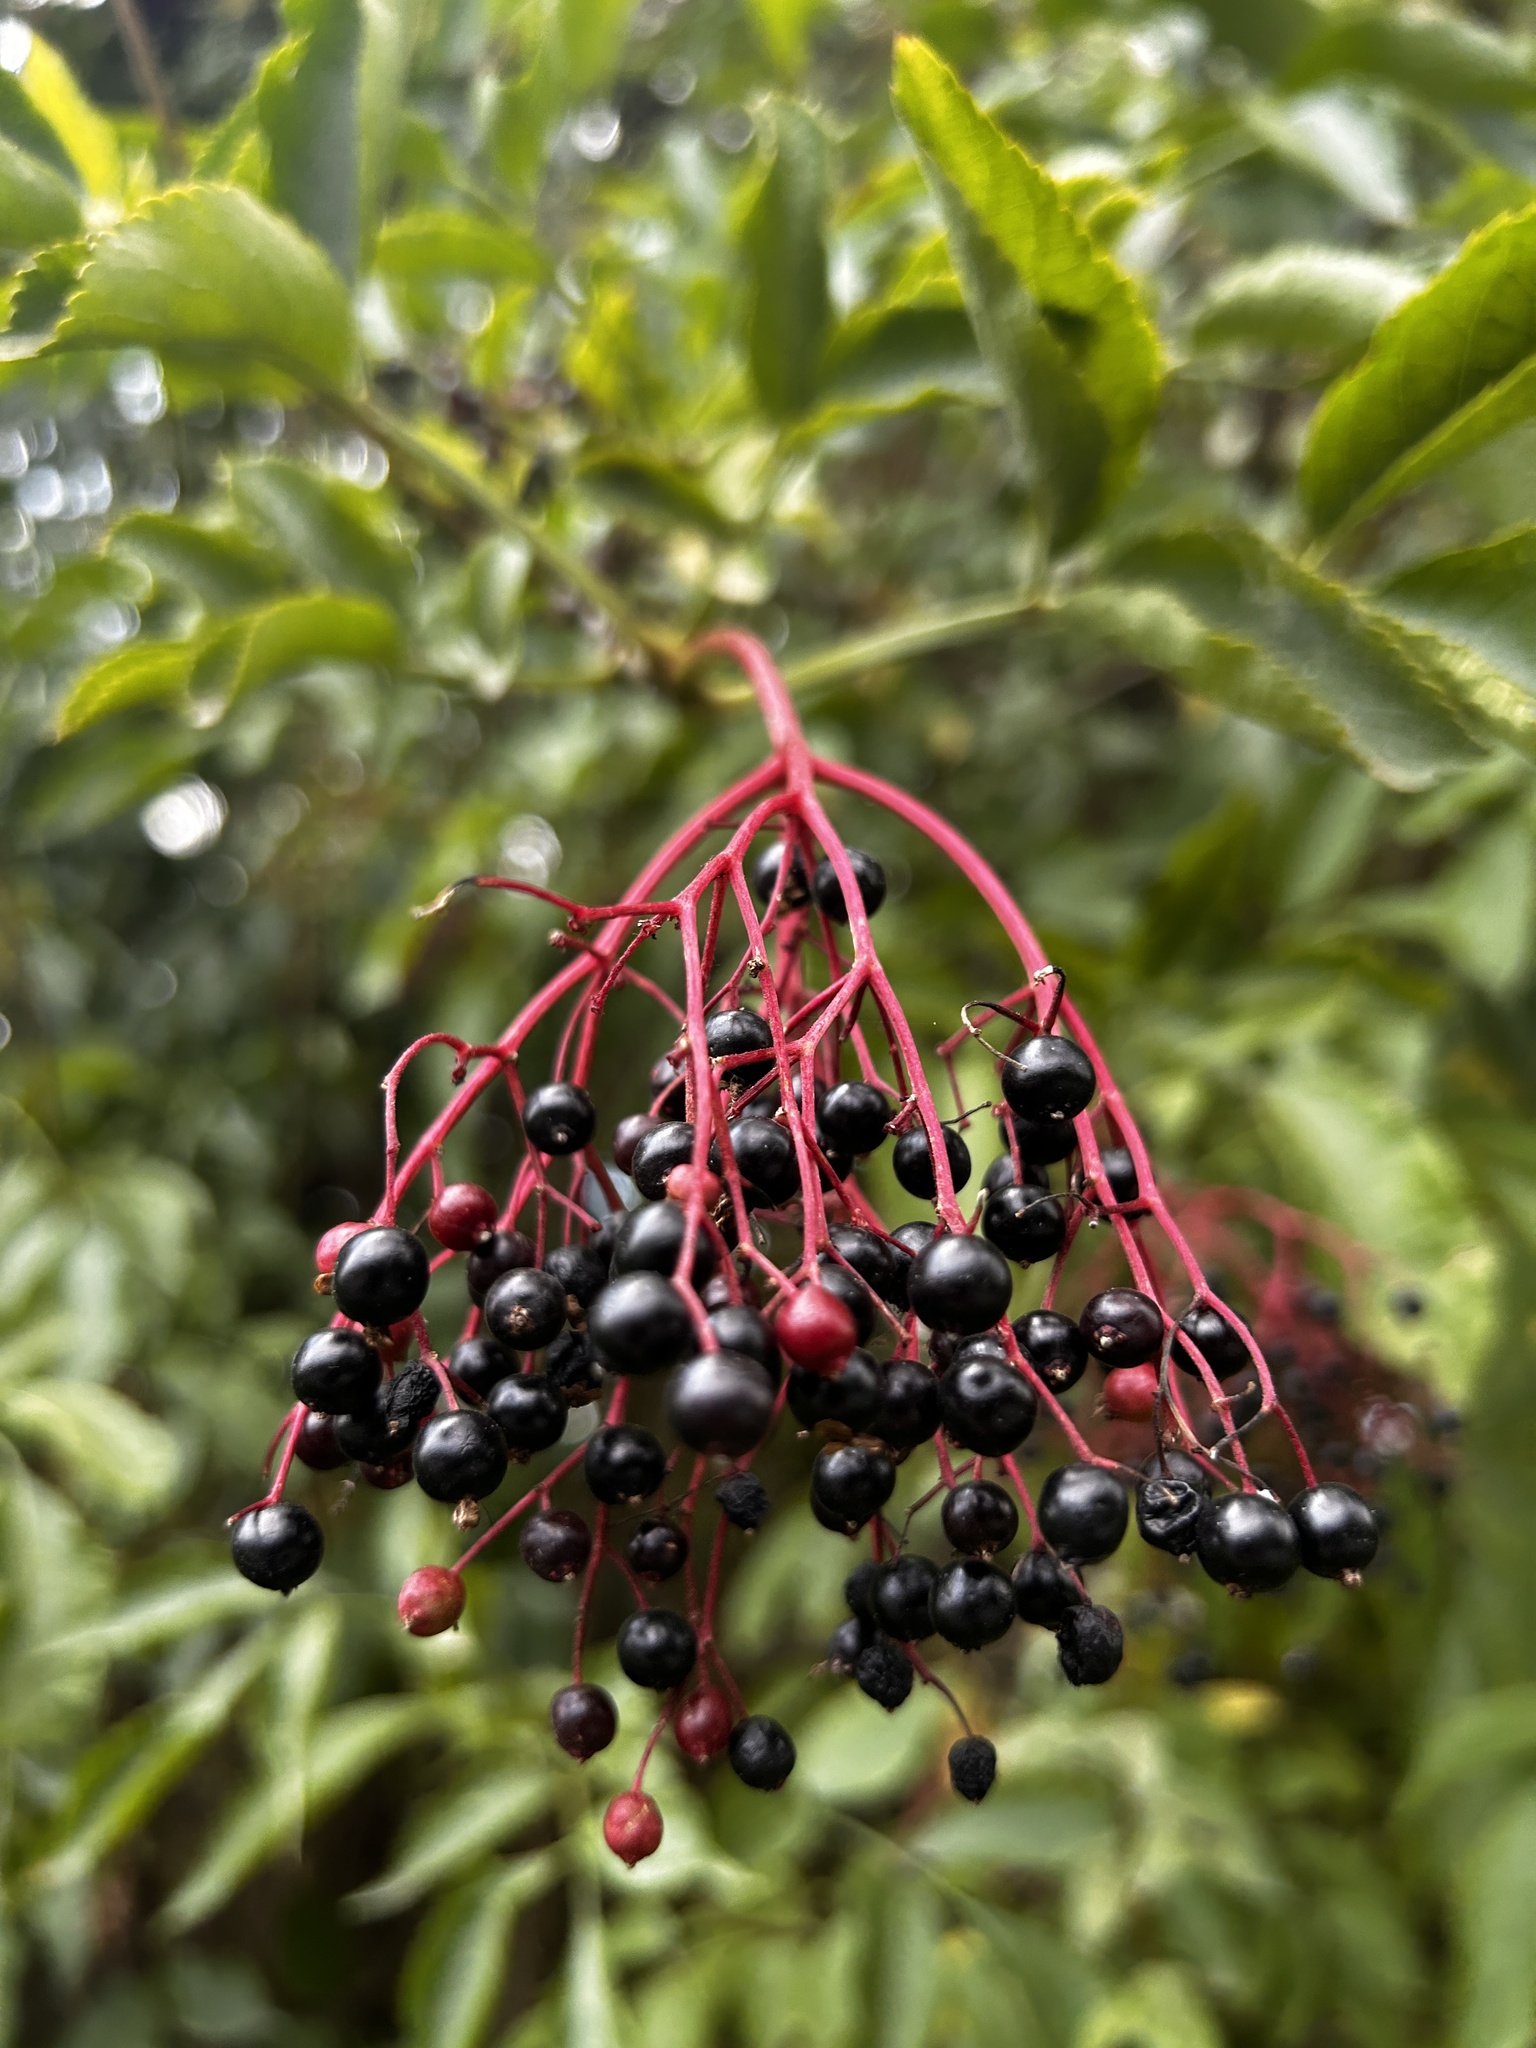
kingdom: Plantae
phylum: Tracheophyta
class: Magnoliopsida
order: Dipsacales
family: Viburnaceae
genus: Sambucus
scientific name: Sambucus nigra
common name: Elder
